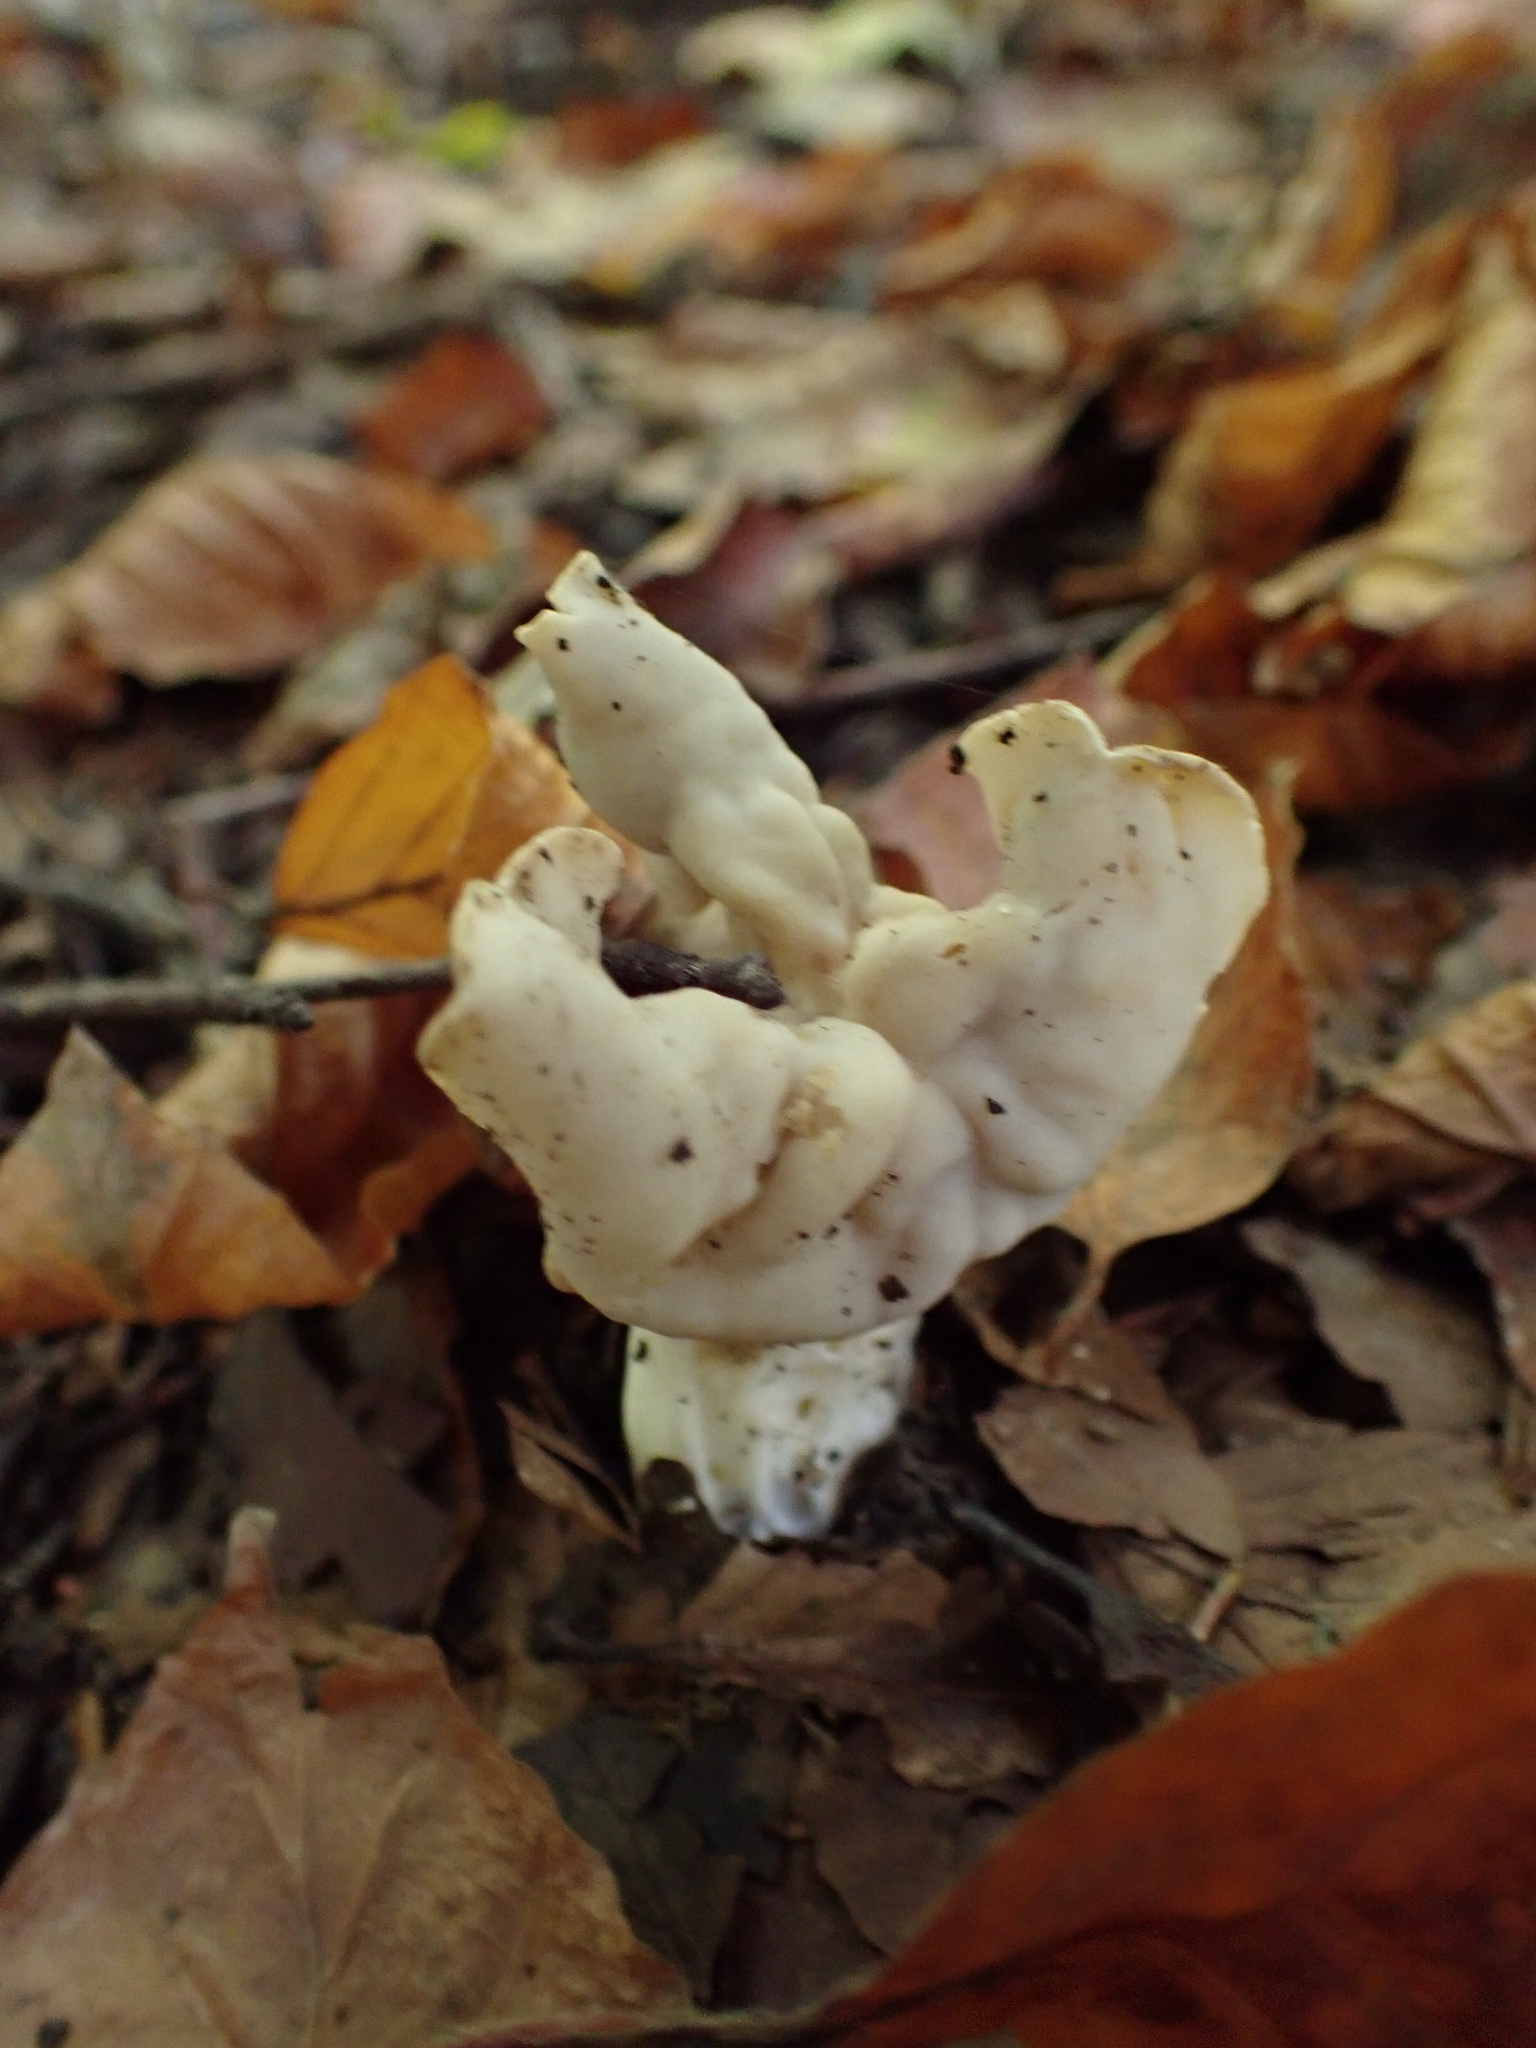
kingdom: Fungi
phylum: Ascomycota
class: Pezizomycetes
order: Pezizales
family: Helvellaceae
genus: Helvella
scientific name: Helvella crispa
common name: White saddle
